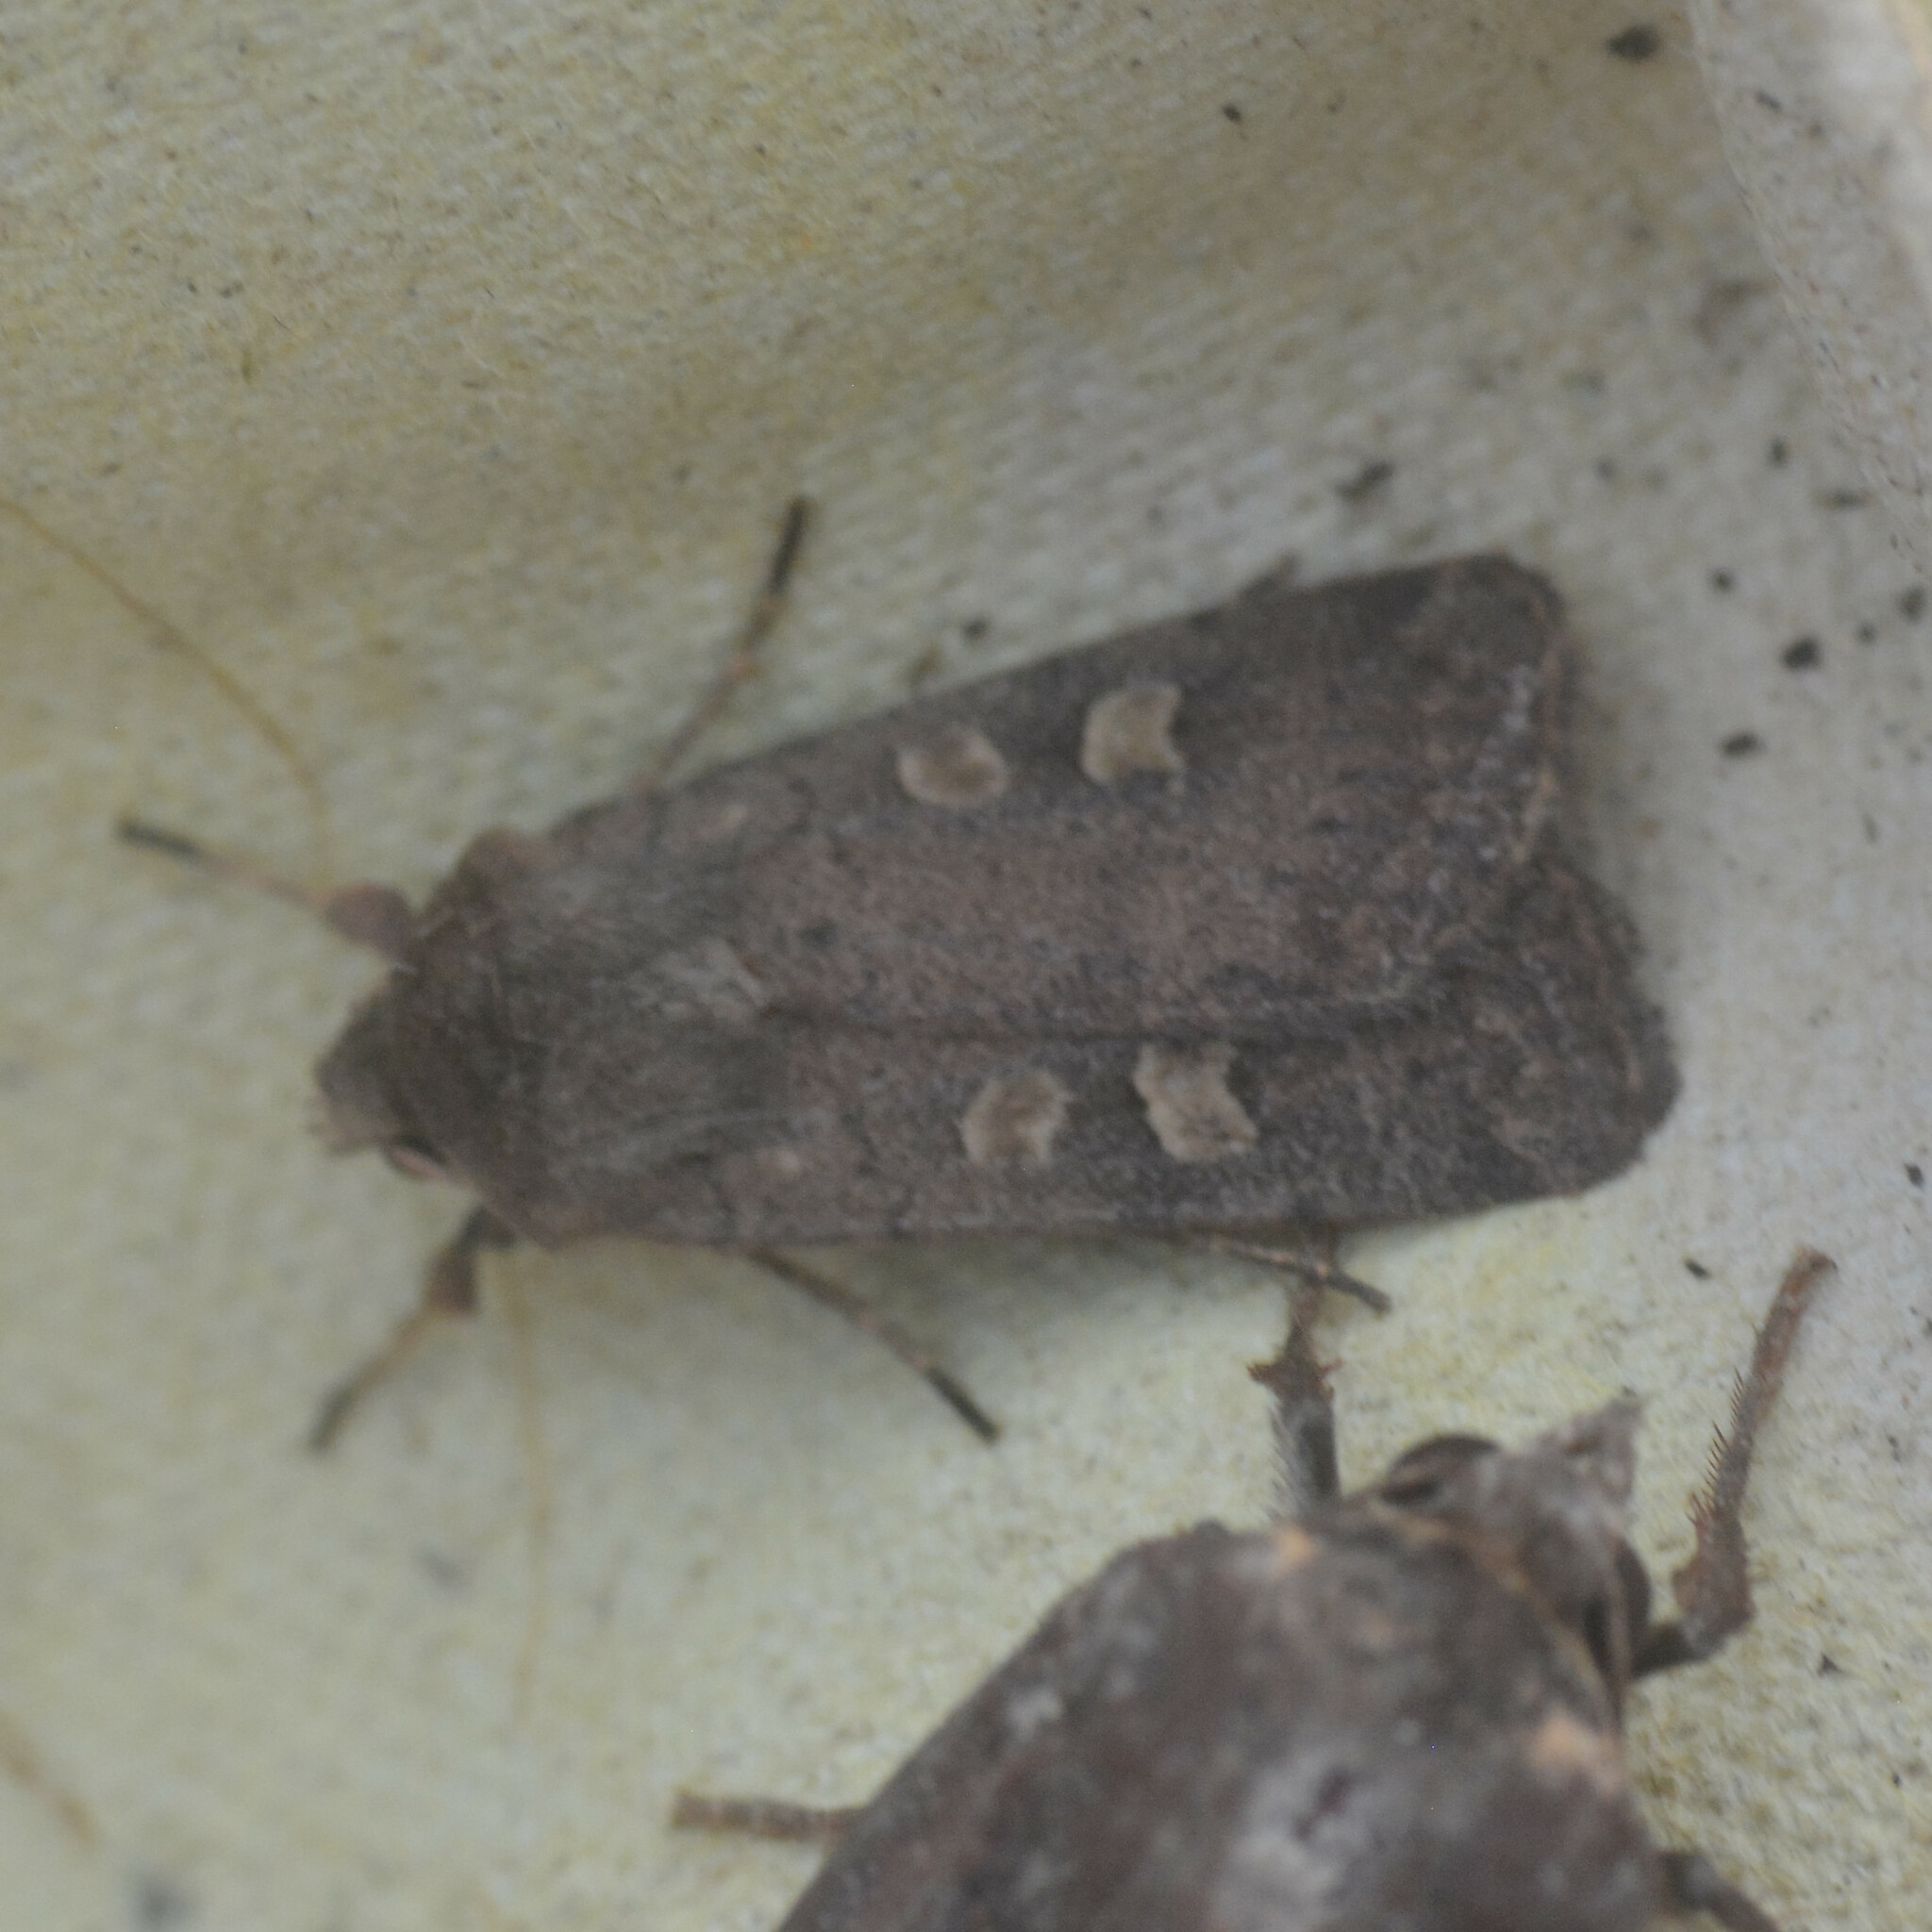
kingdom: Animalia
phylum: Arthropoda
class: Insecta
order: Lepidoptera
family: Noctuidae
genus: Xestia
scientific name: Xestia xanthographa
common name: Square-spot rustic
